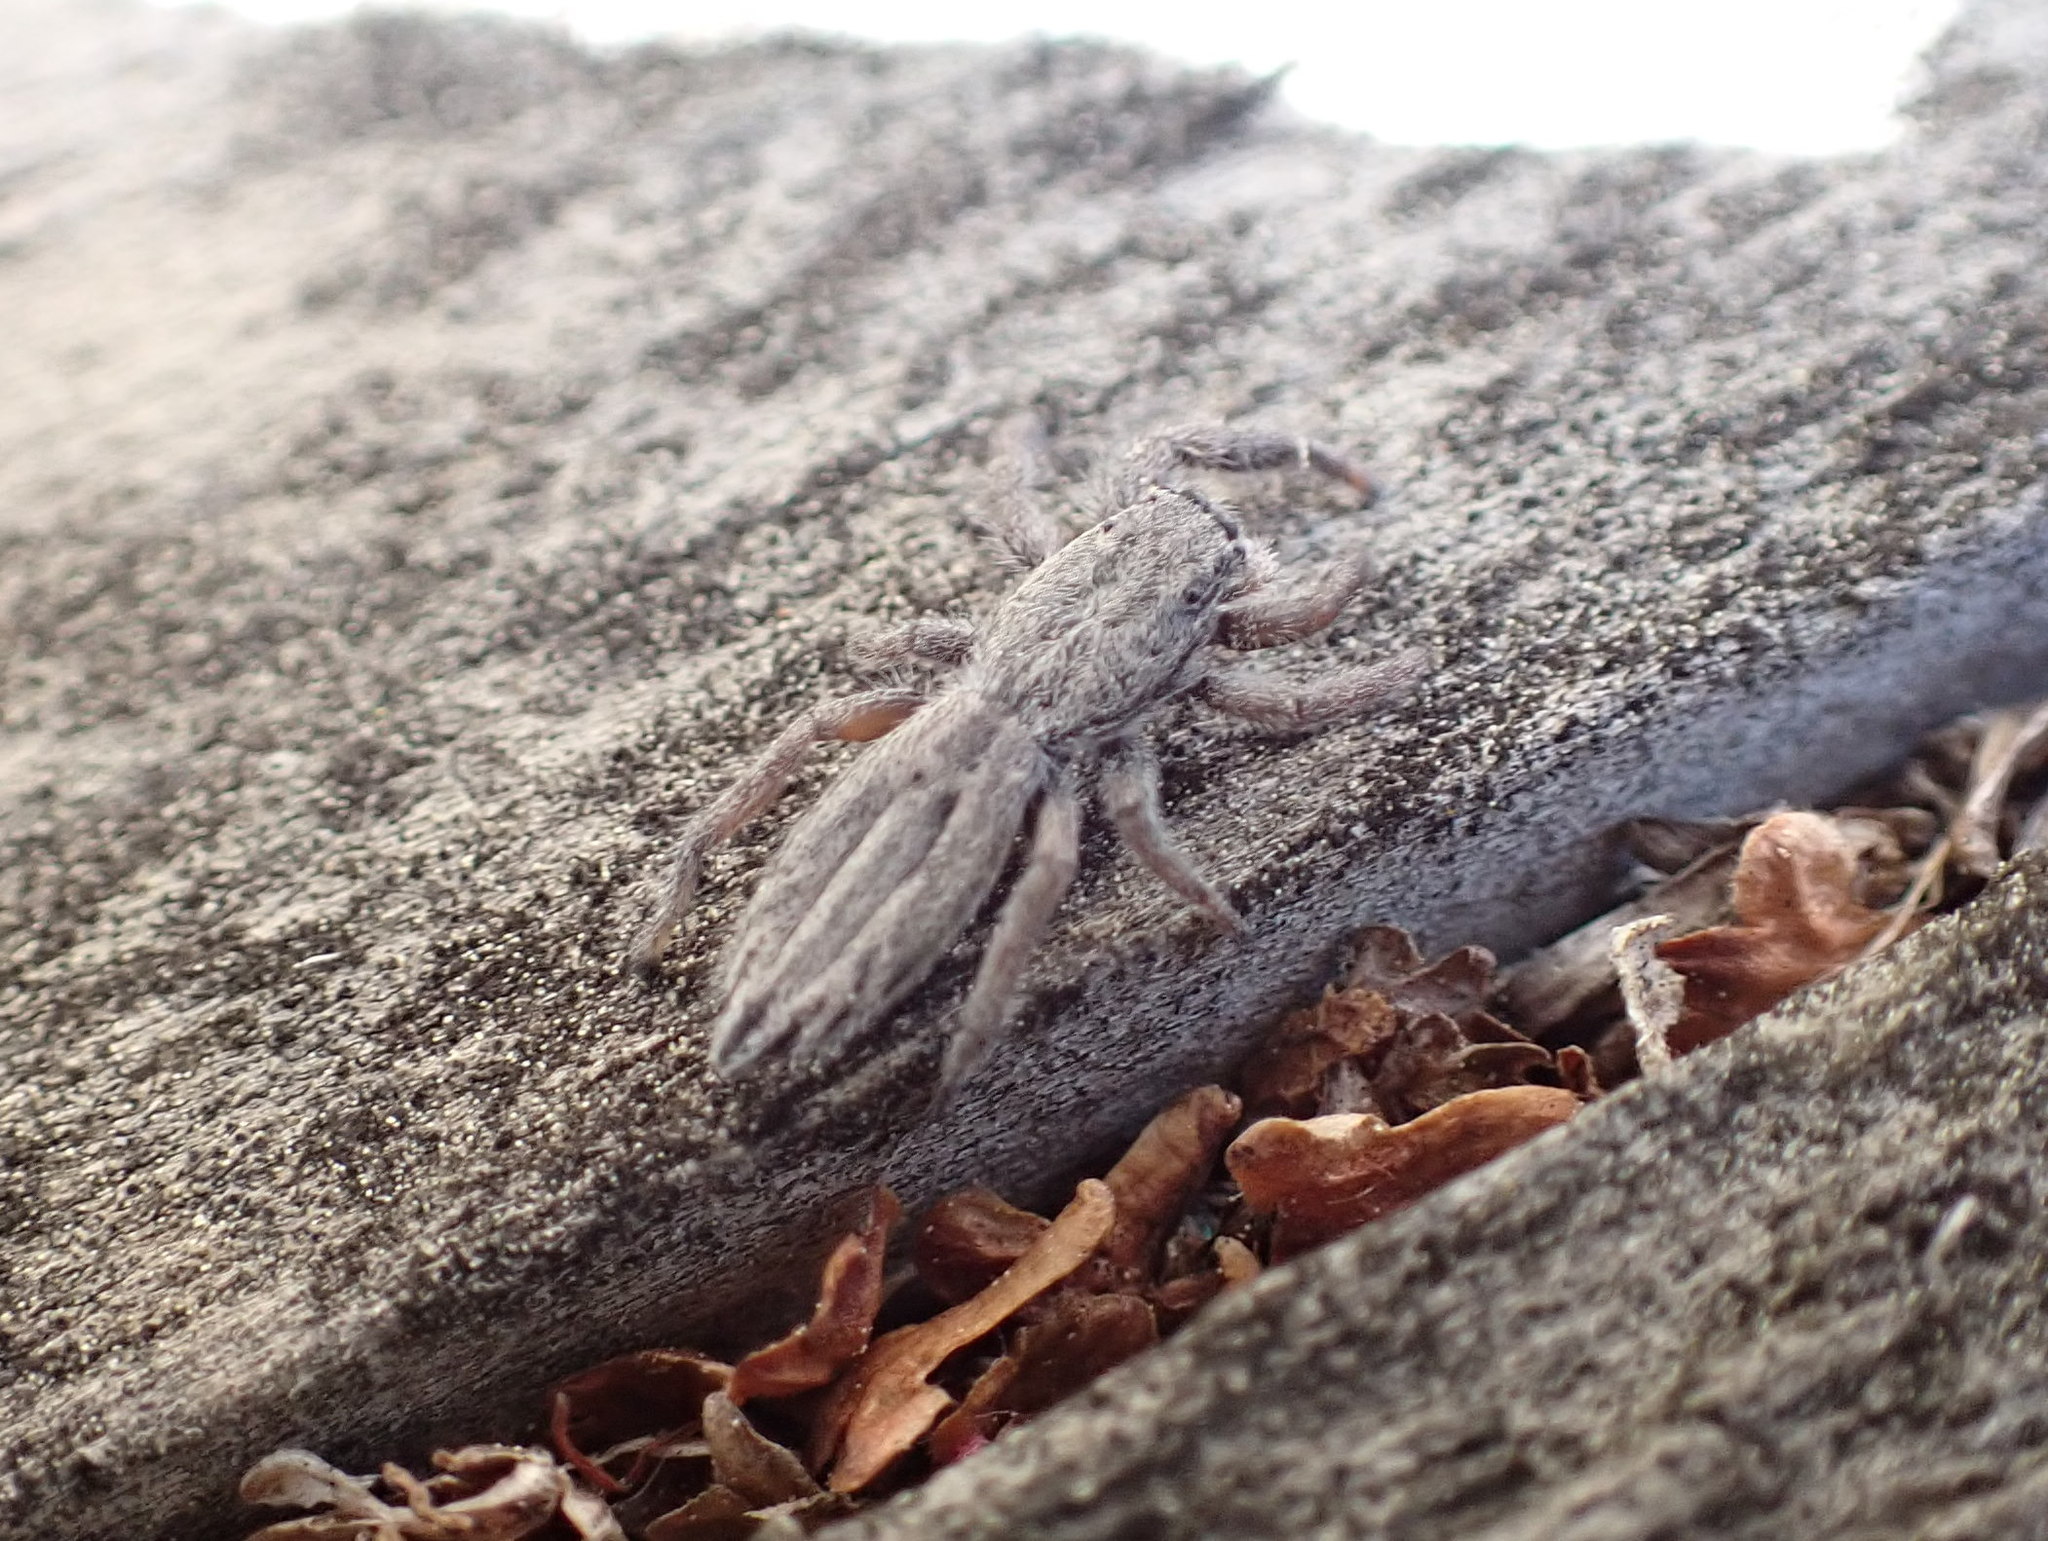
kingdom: Animalia
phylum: Arthropoda
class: Arachnida
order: Araneae
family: Salticidae
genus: Holoplatys
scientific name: Holoplatys apressus
